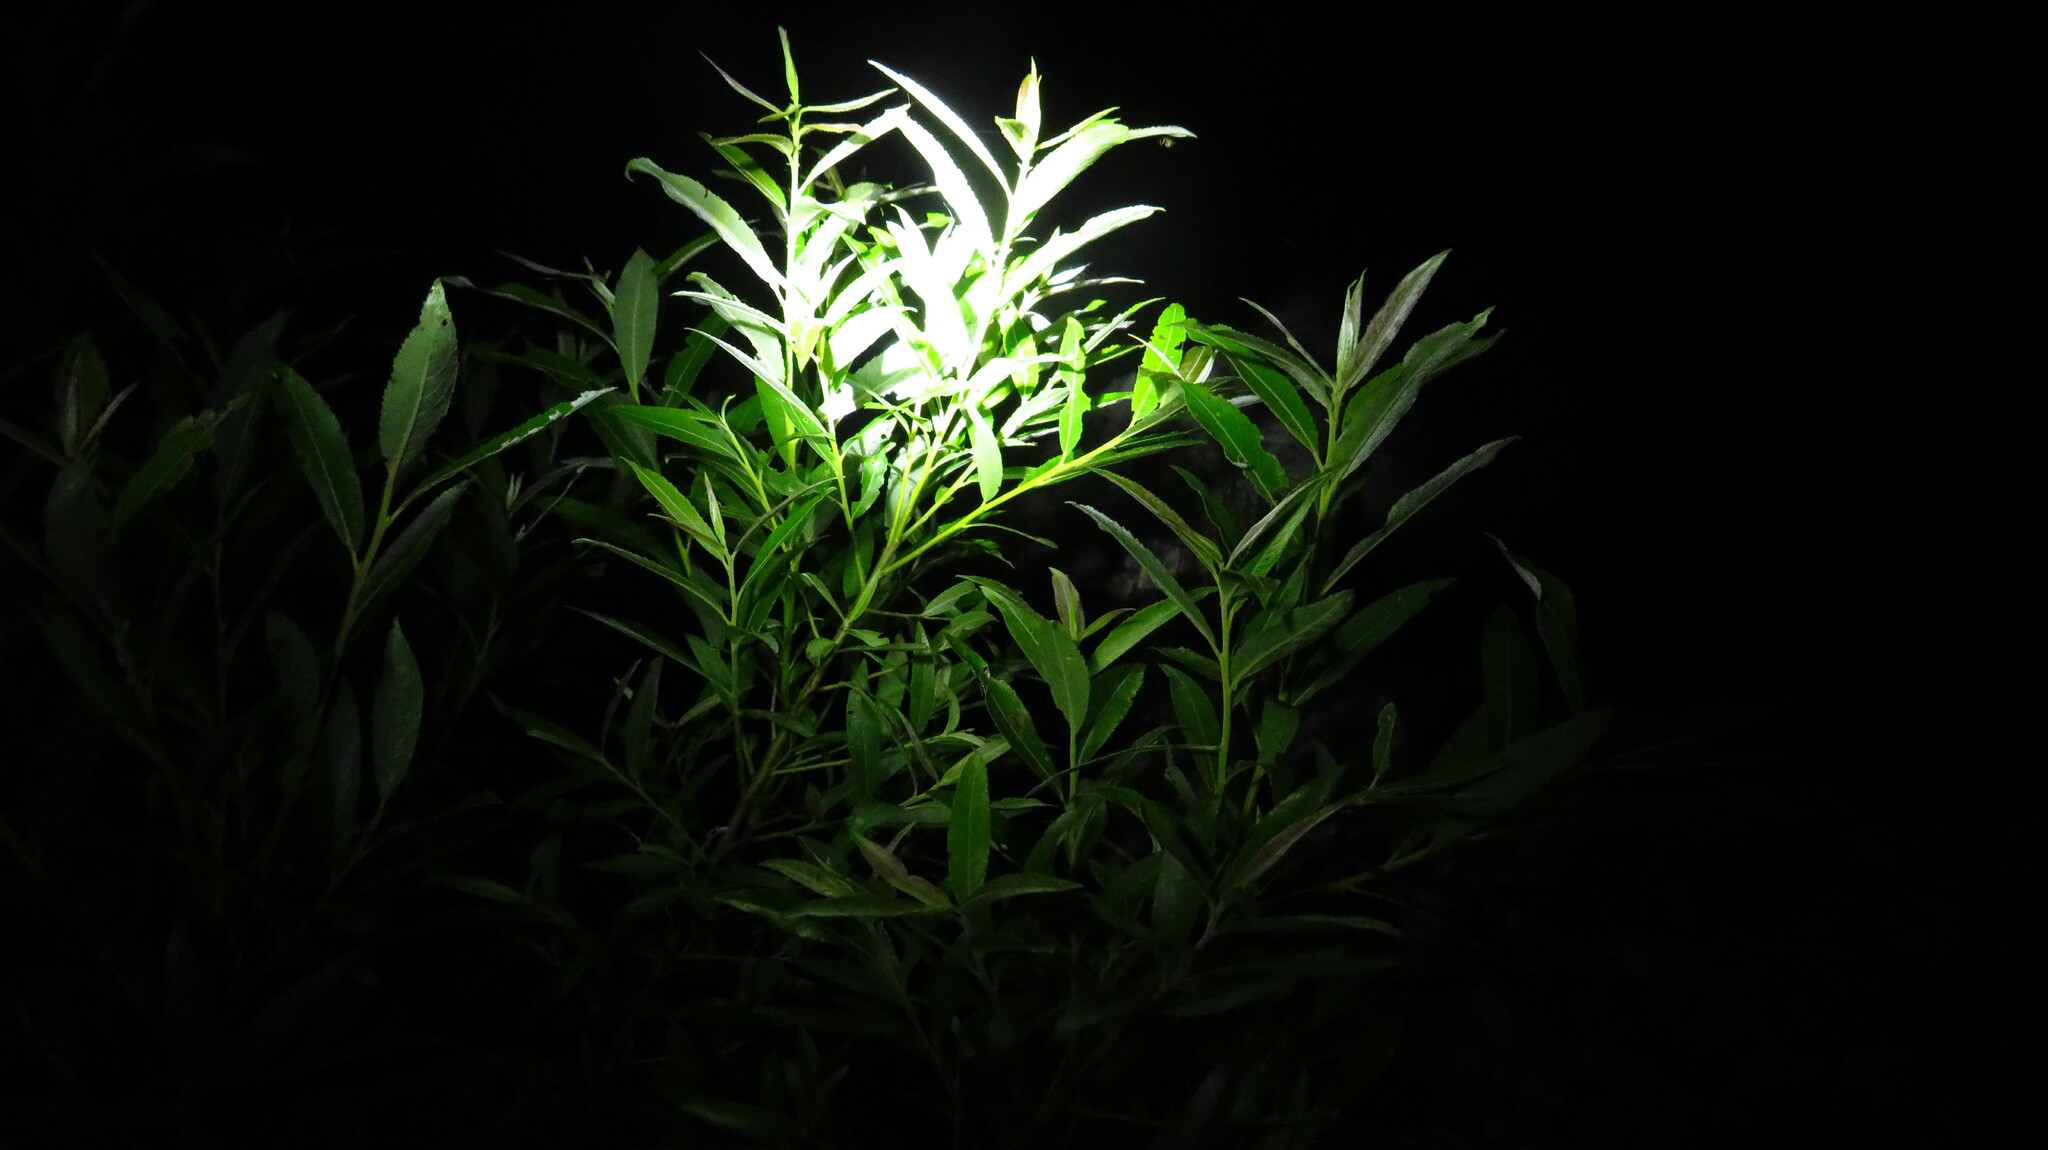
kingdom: Plantae
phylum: Tracheophyta
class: Magnoliopsida
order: Malpighiales
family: Salicaceae
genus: Salix
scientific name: Salix sericea
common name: Silky willow
